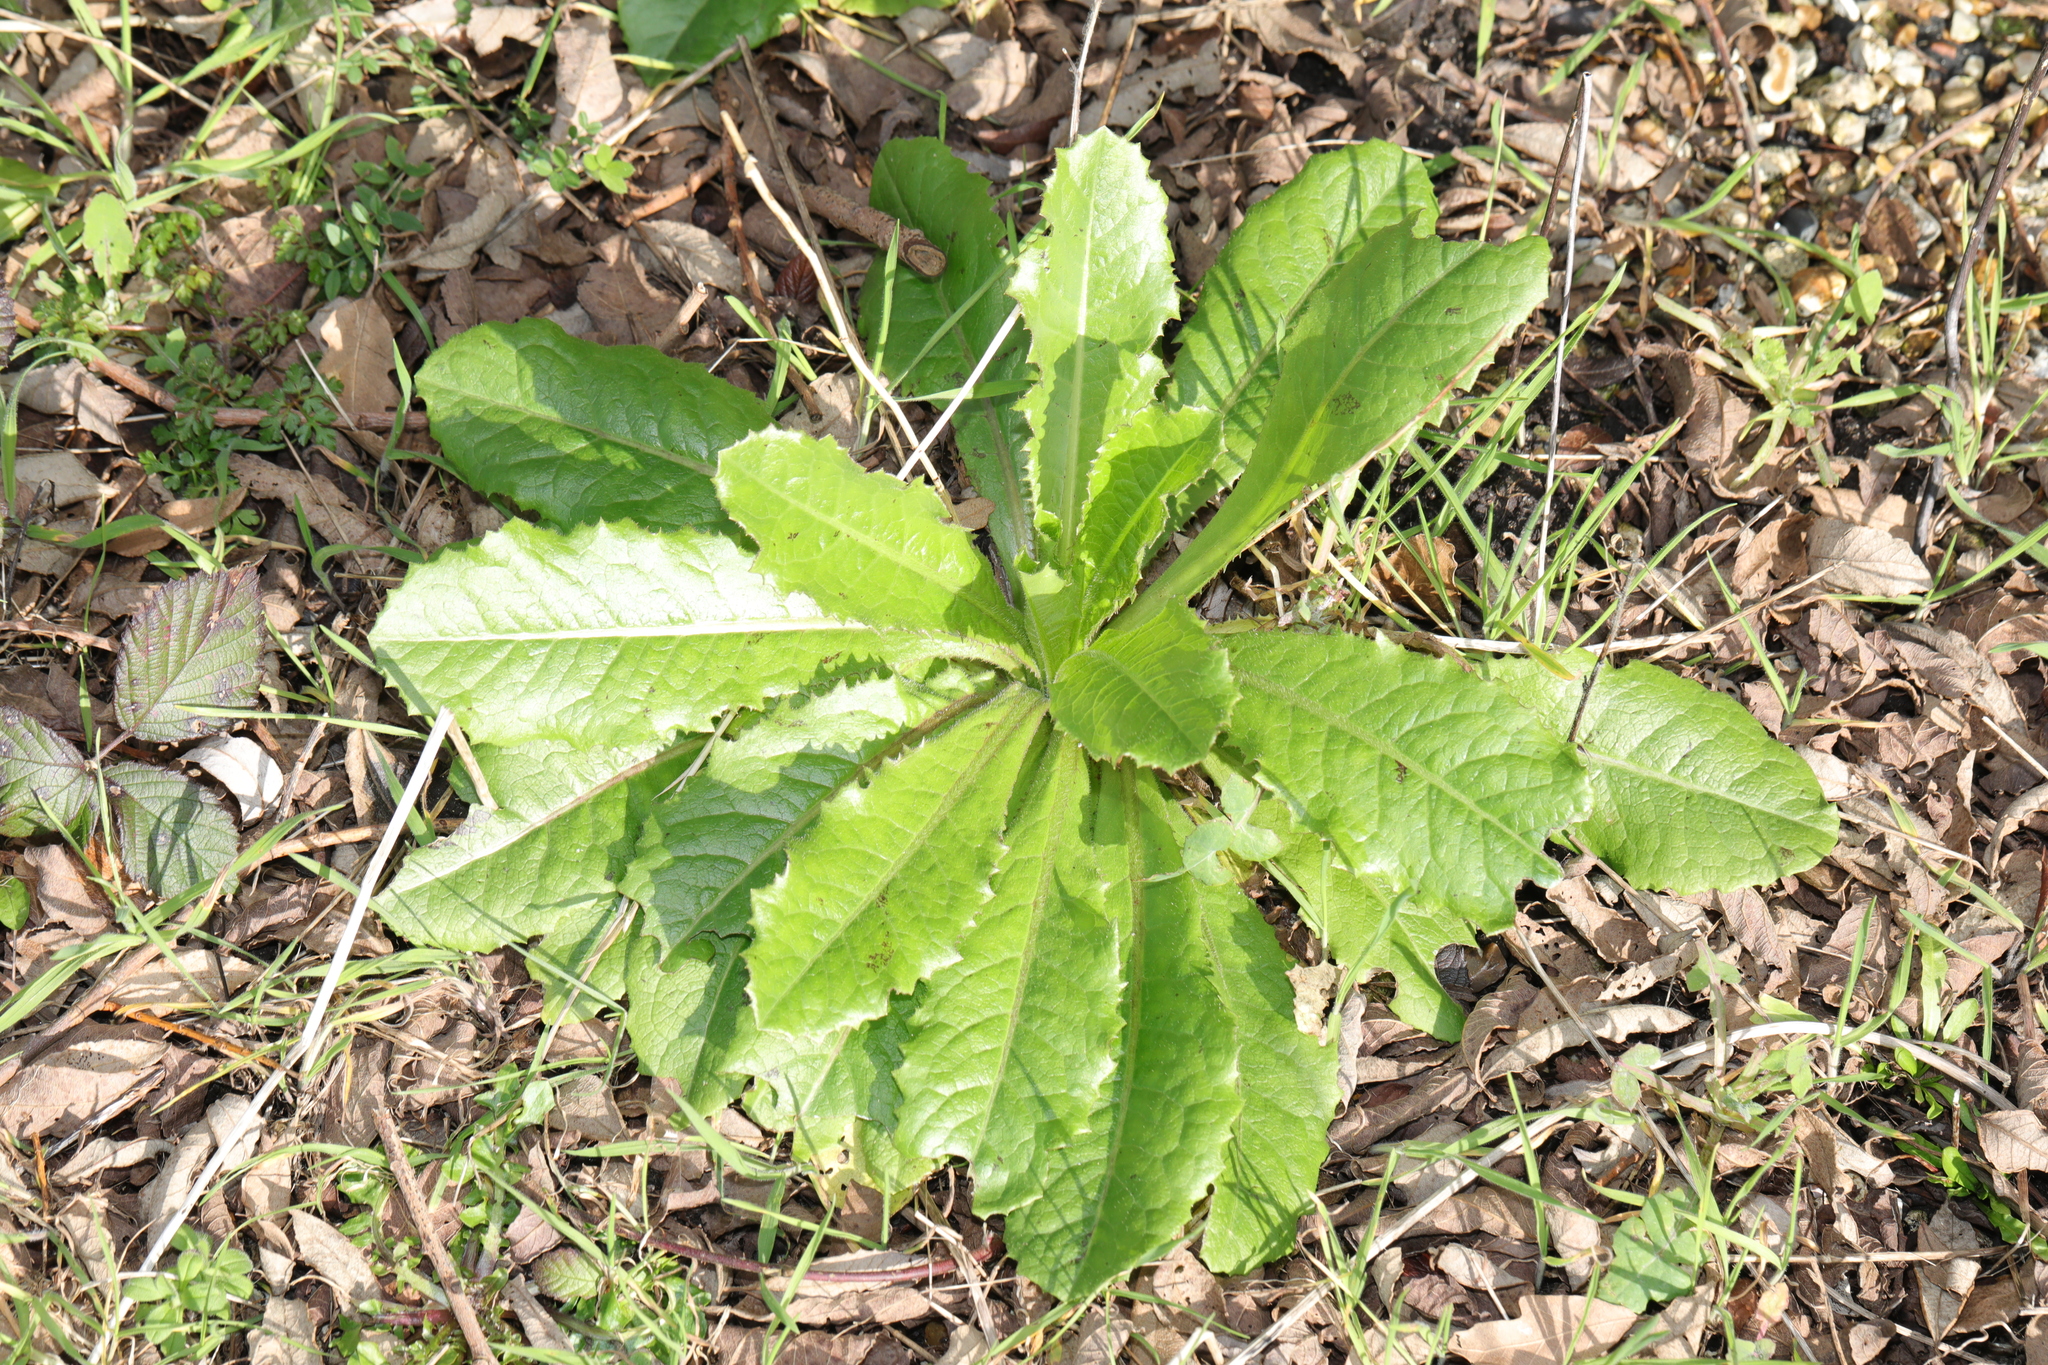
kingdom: Plantae
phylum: Tracheophyta
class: Magnoliopsida
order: Asterales
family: Asteraceae
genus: Lactuca
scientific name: Lactuca serriola
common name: Prickly lettuce
